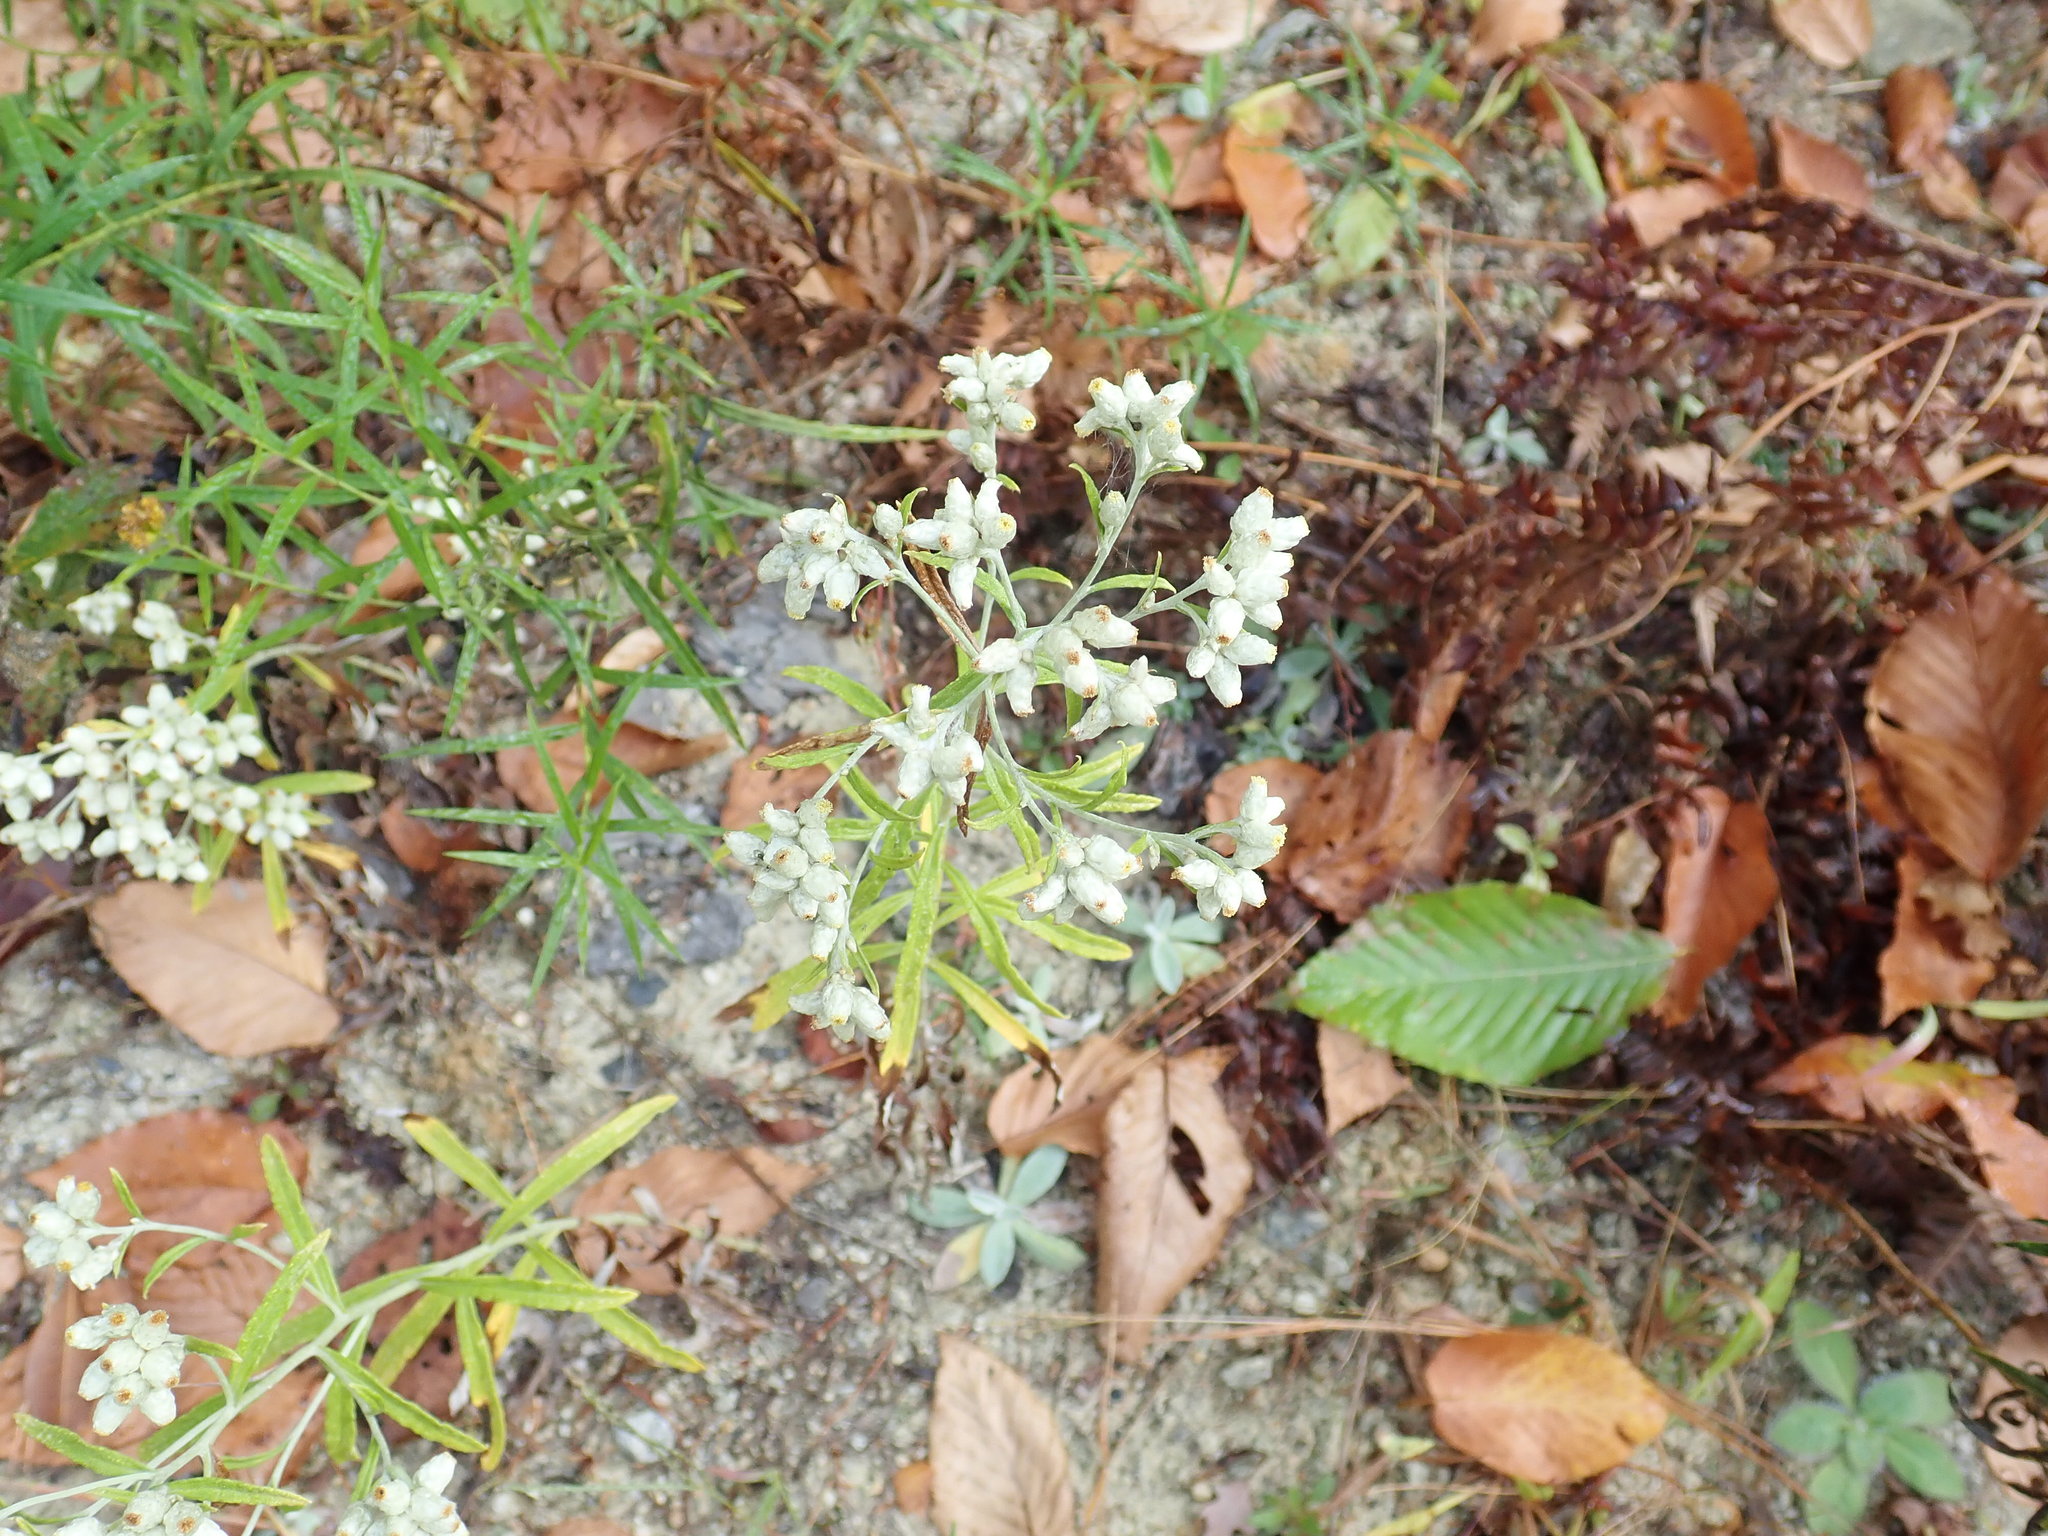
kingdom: Plantae
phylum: Tracheophyta
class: Magnoliopsida
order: Asterales
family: Asteraceae
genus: Pseudognaphalium
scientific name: Pseudognaphalium obtusifolium
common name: Eastern rabbit-tobacco
